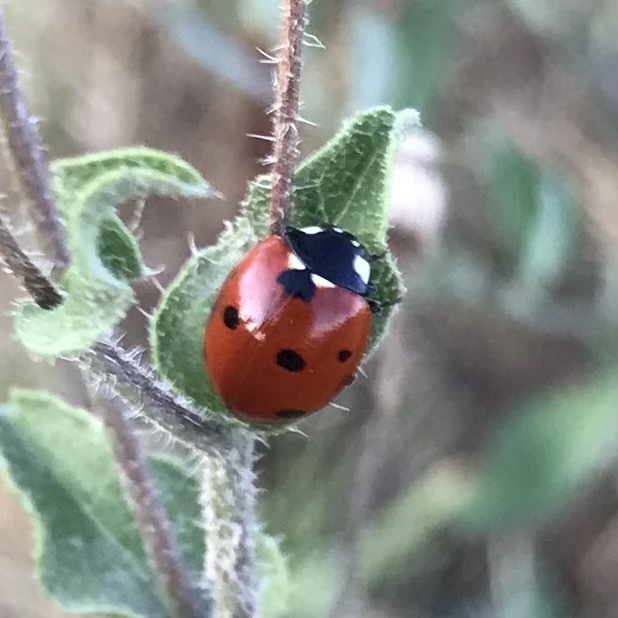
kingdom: Animalia
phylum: Arthropoda
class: Insecta
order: Coleoptera
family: Coccinellidae
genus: Coccinella
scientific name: Coccinella septempunctata
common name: Sevenspotted lady beetle
